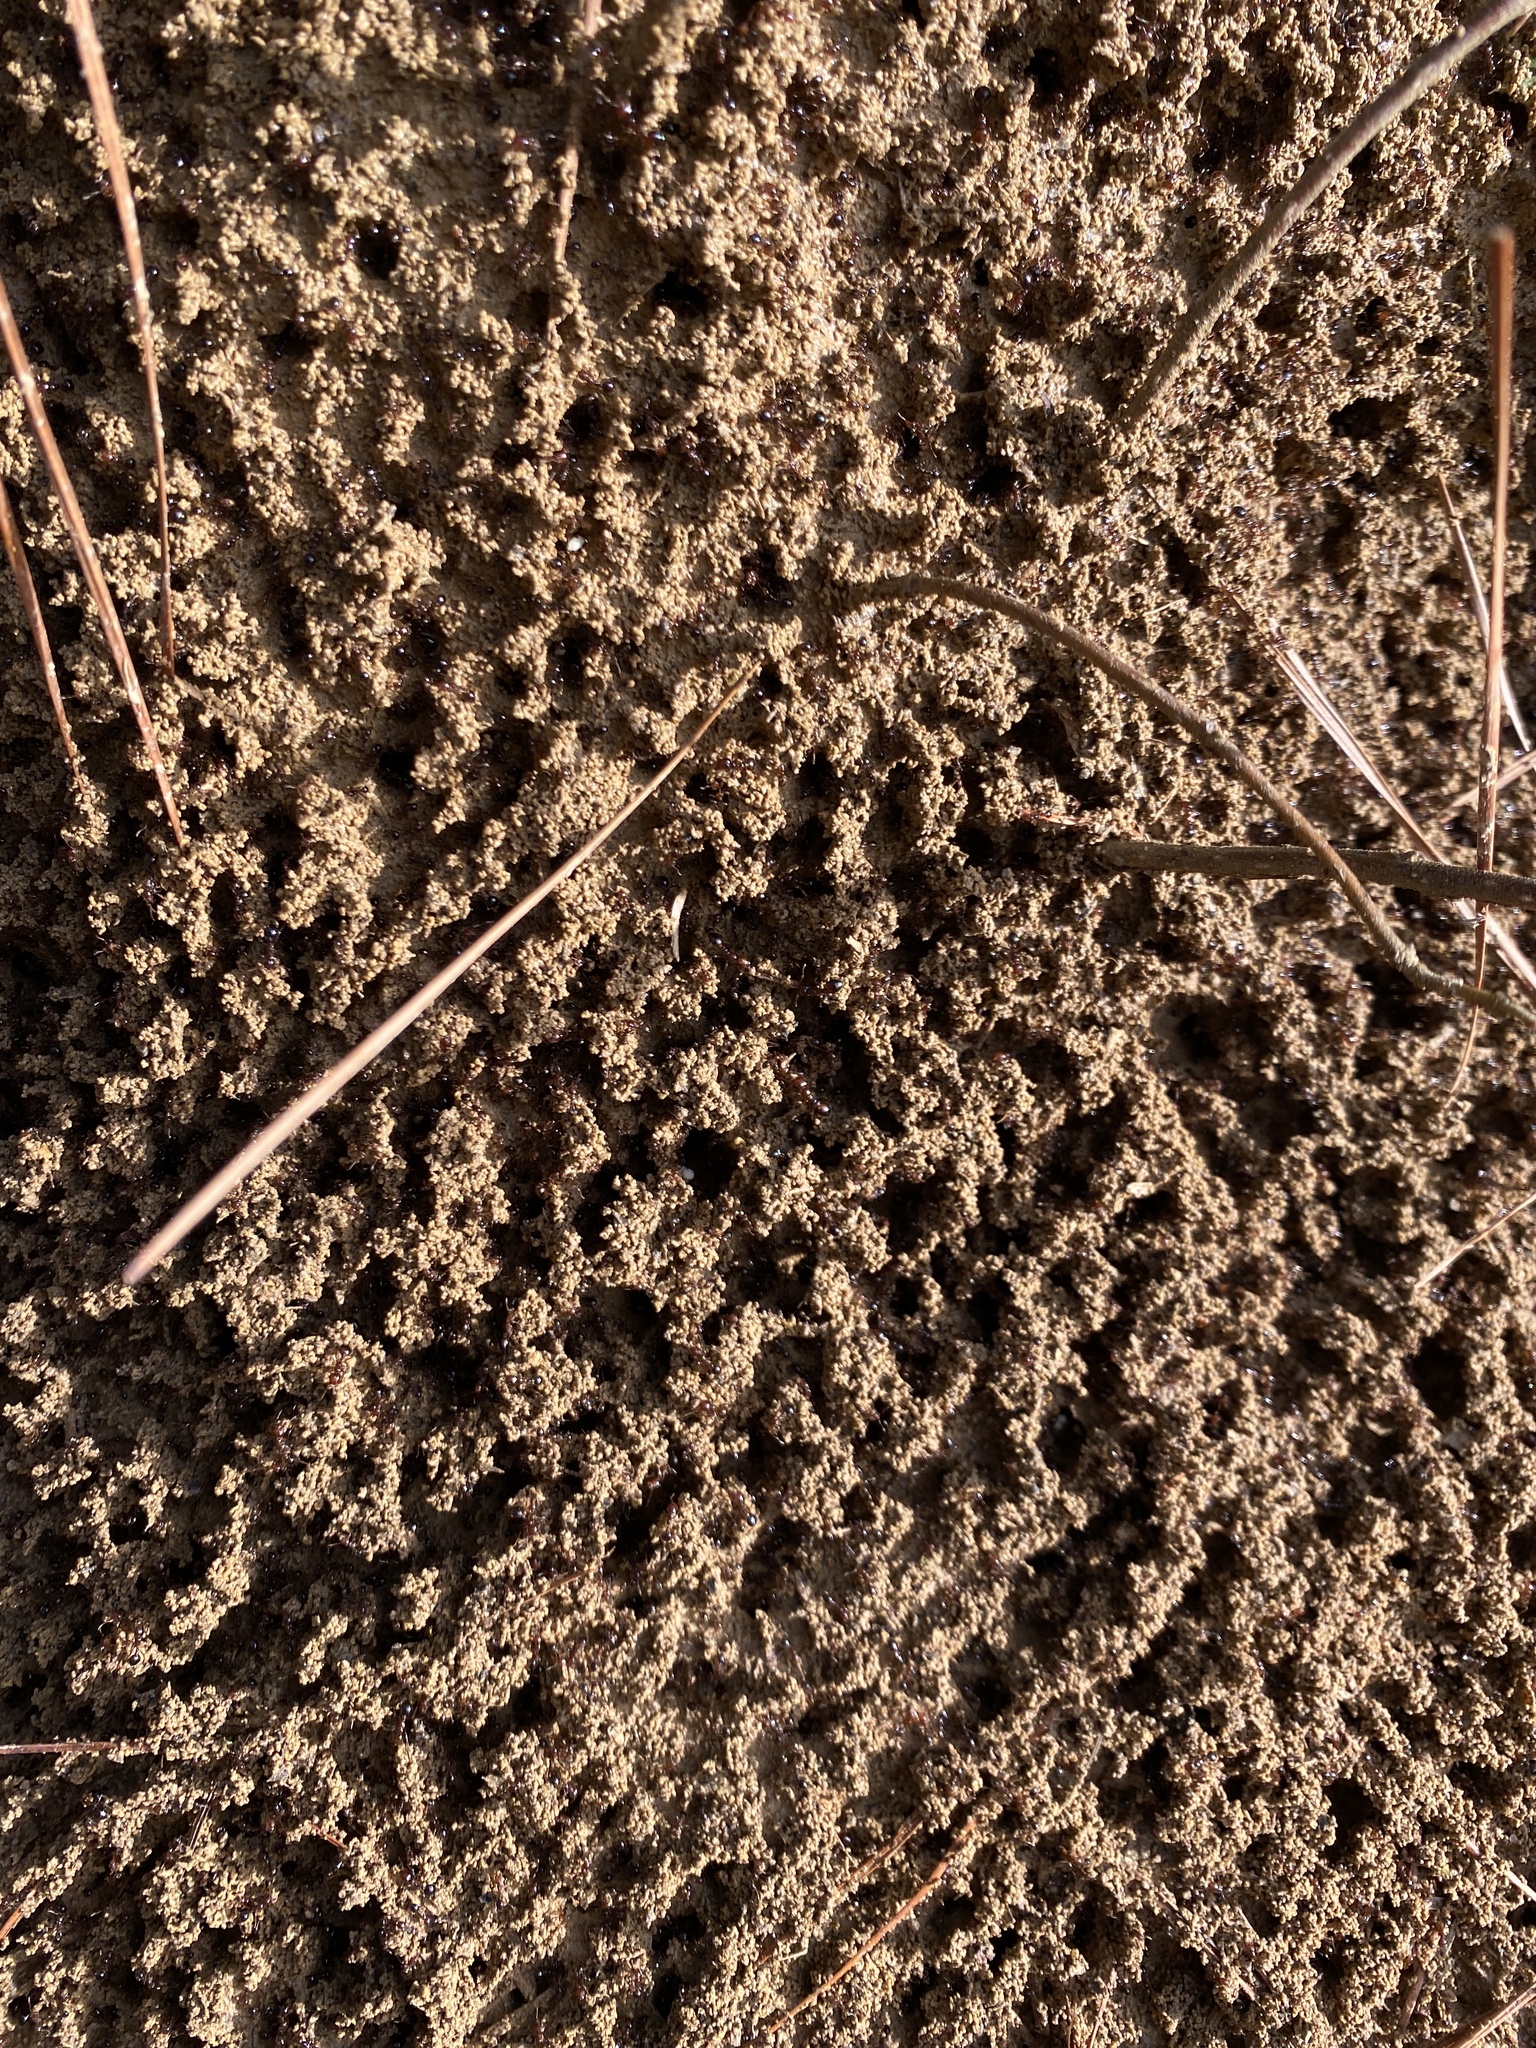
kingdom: Animalia
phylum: Arthropoda
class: Insecta
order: Hymenoptera
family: Formicidae
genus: Solenopsis
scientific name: Solenopsis invicta
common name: Red imported fire ant
